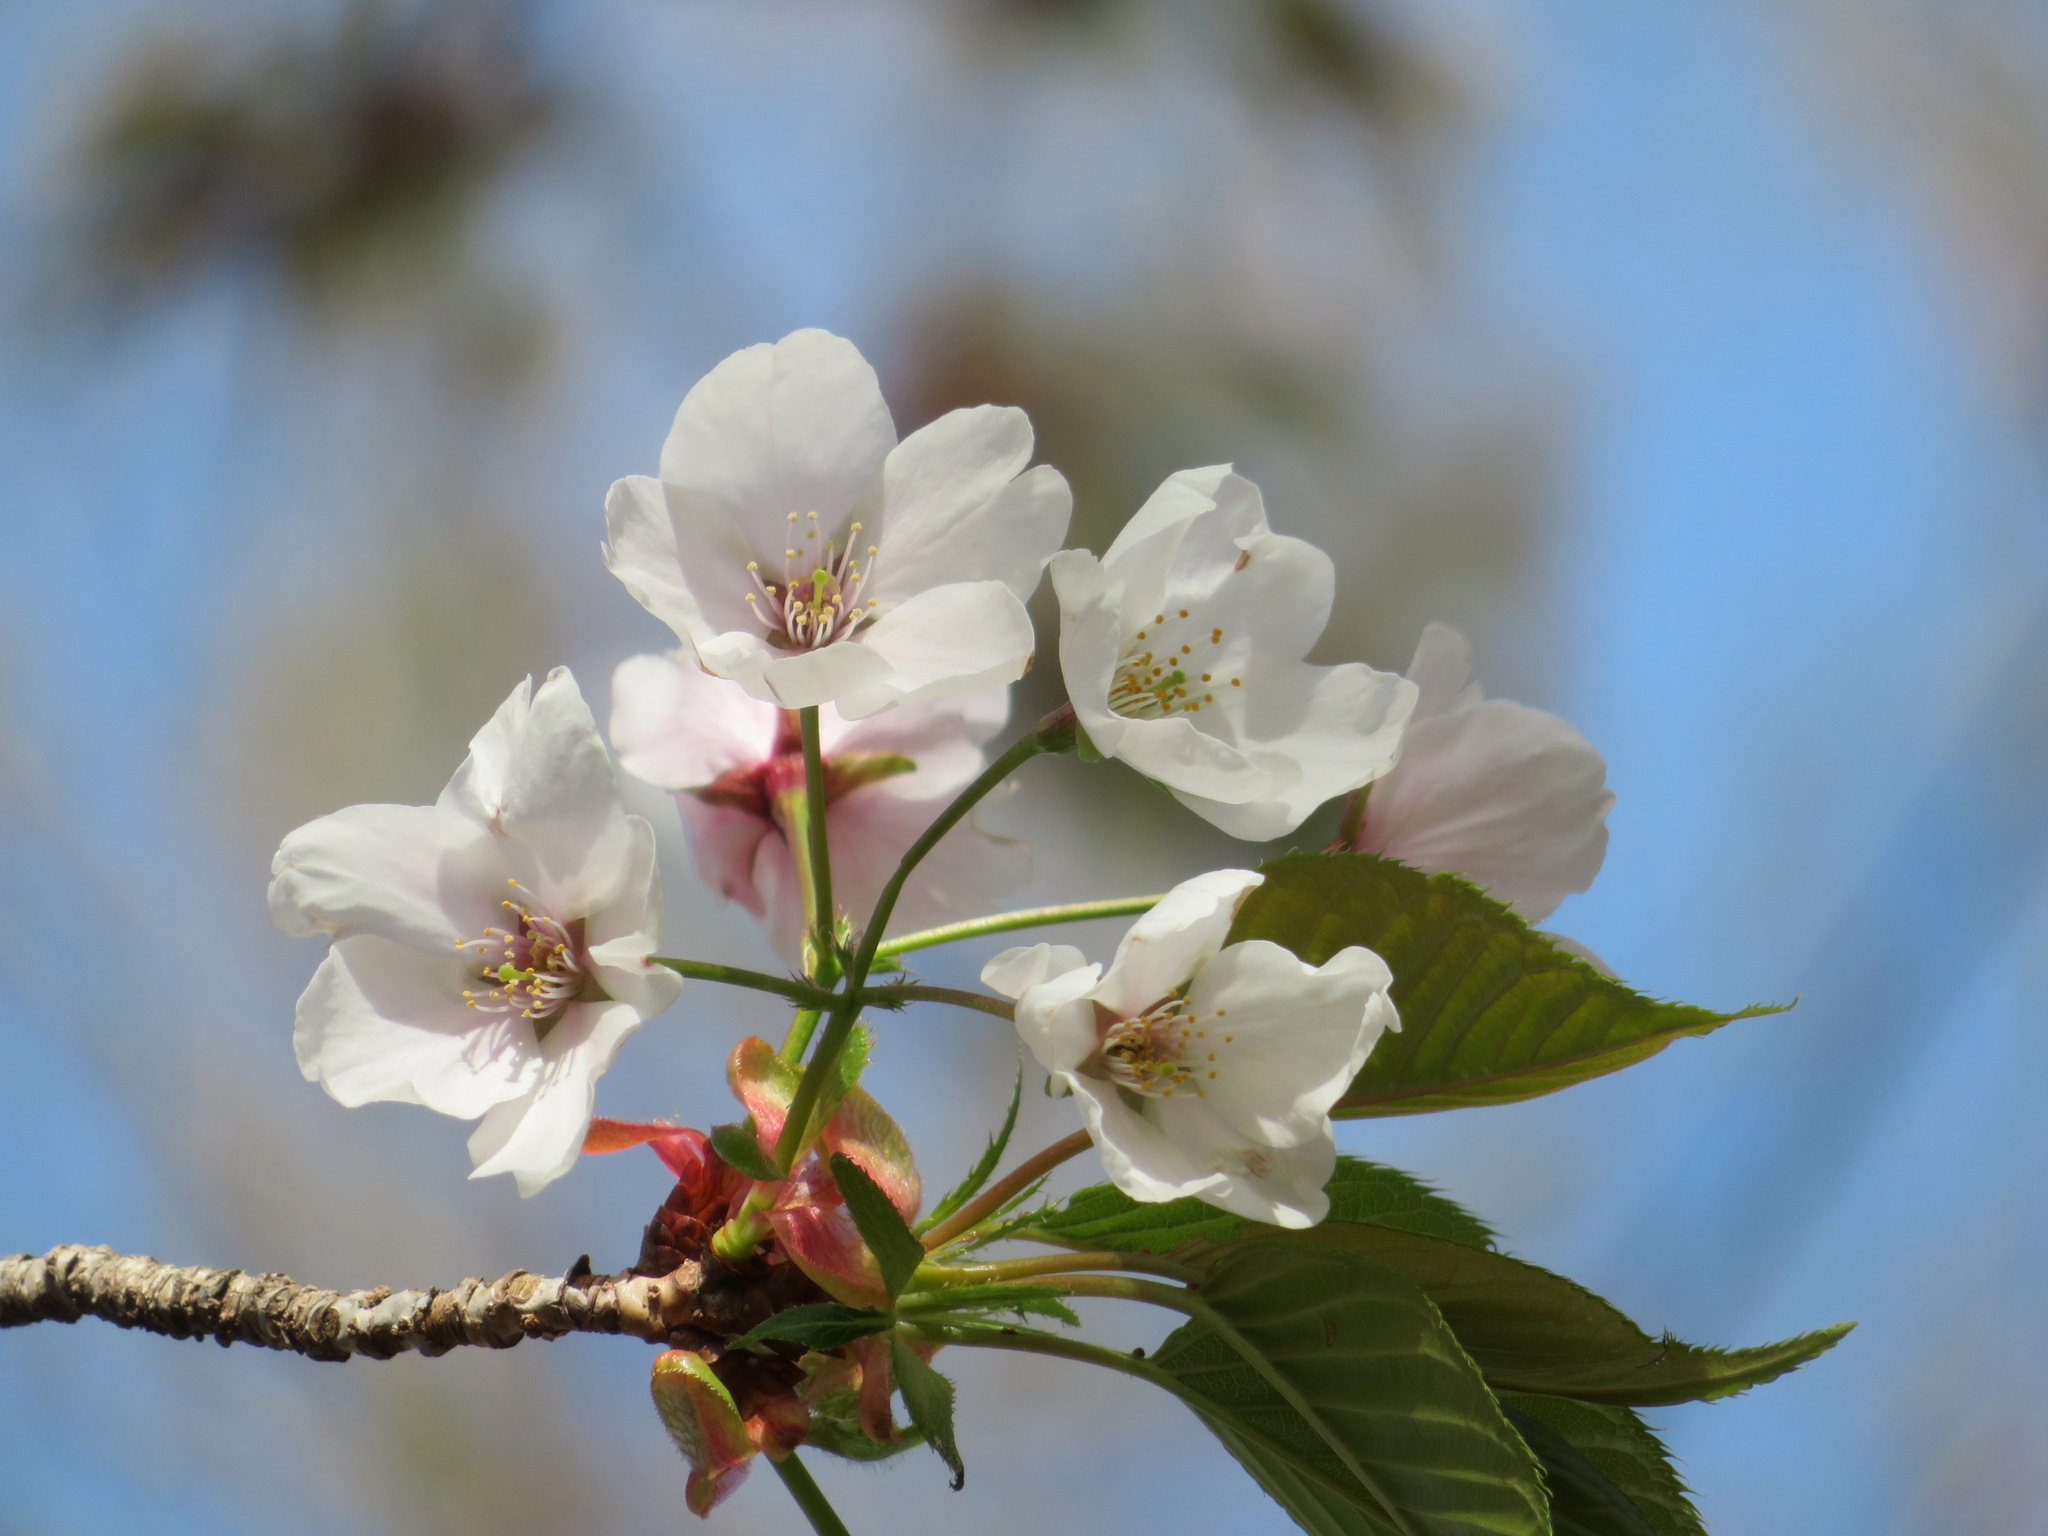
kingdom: Plantae
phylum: Tracheophyta
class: Magnoliopsida
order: Rosales
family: Rosaceae
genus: Prunus
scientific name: Prunus jamasakura
